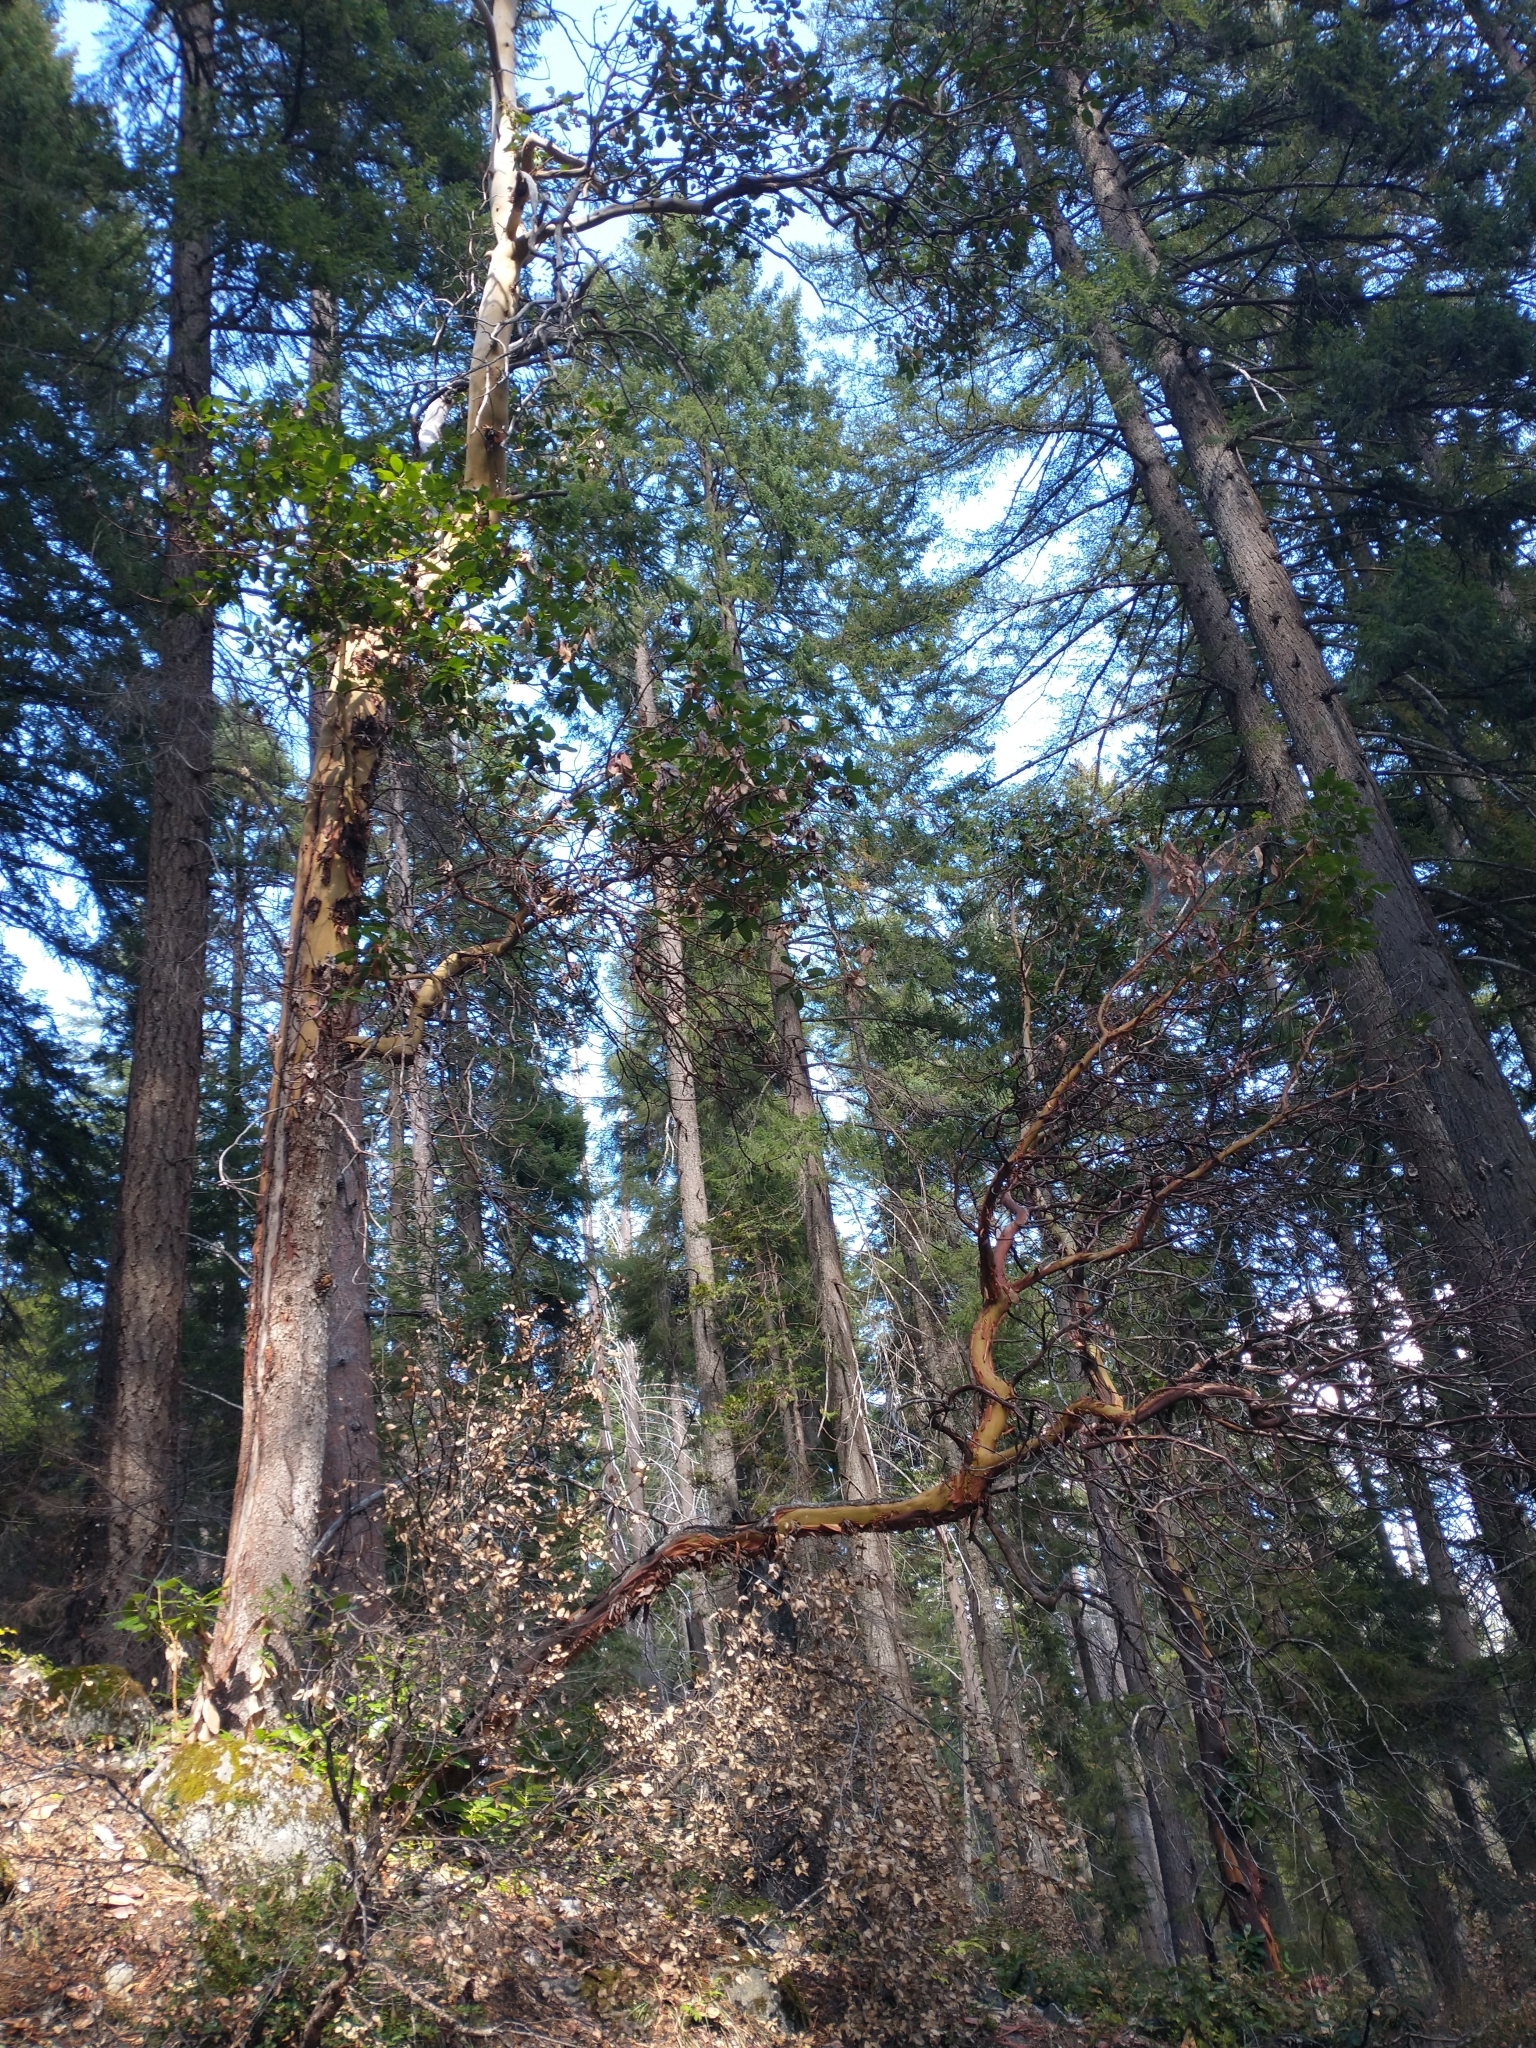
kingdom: Plantae
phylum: Tracheophyta
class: Pinopsida
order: Pinales
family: Pinaceae
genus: Pseudotsuga
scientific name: Pseudotsuga menziesii
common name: Douglas fir
